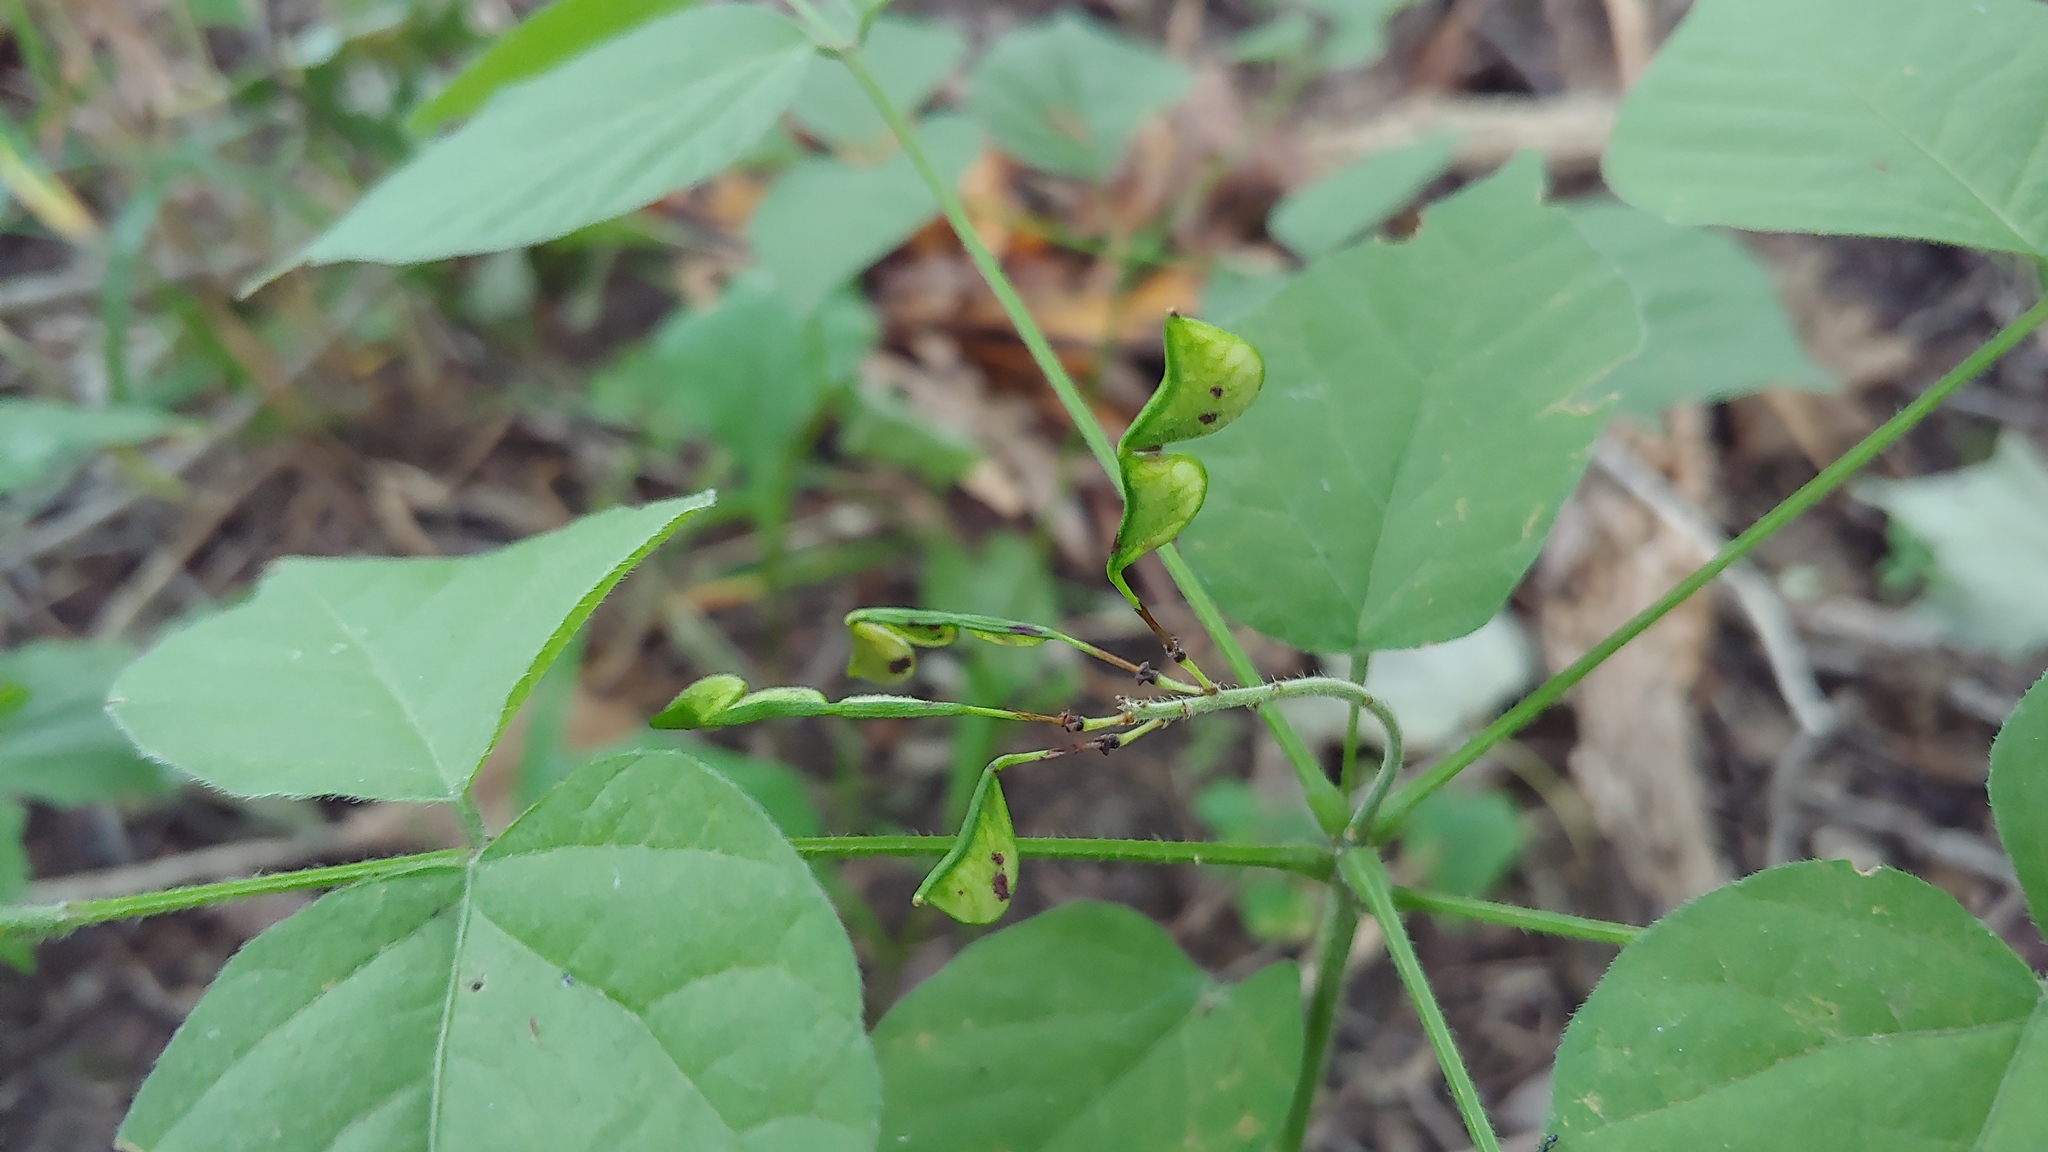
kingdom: Plantae
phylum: Tracheophyta
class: Magnoliopsida
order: Fabales
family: Fabaceae
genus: Hylodesmum
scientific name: Hylodesmum glutinosum
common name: Clustered-leaved tick-trefoil
